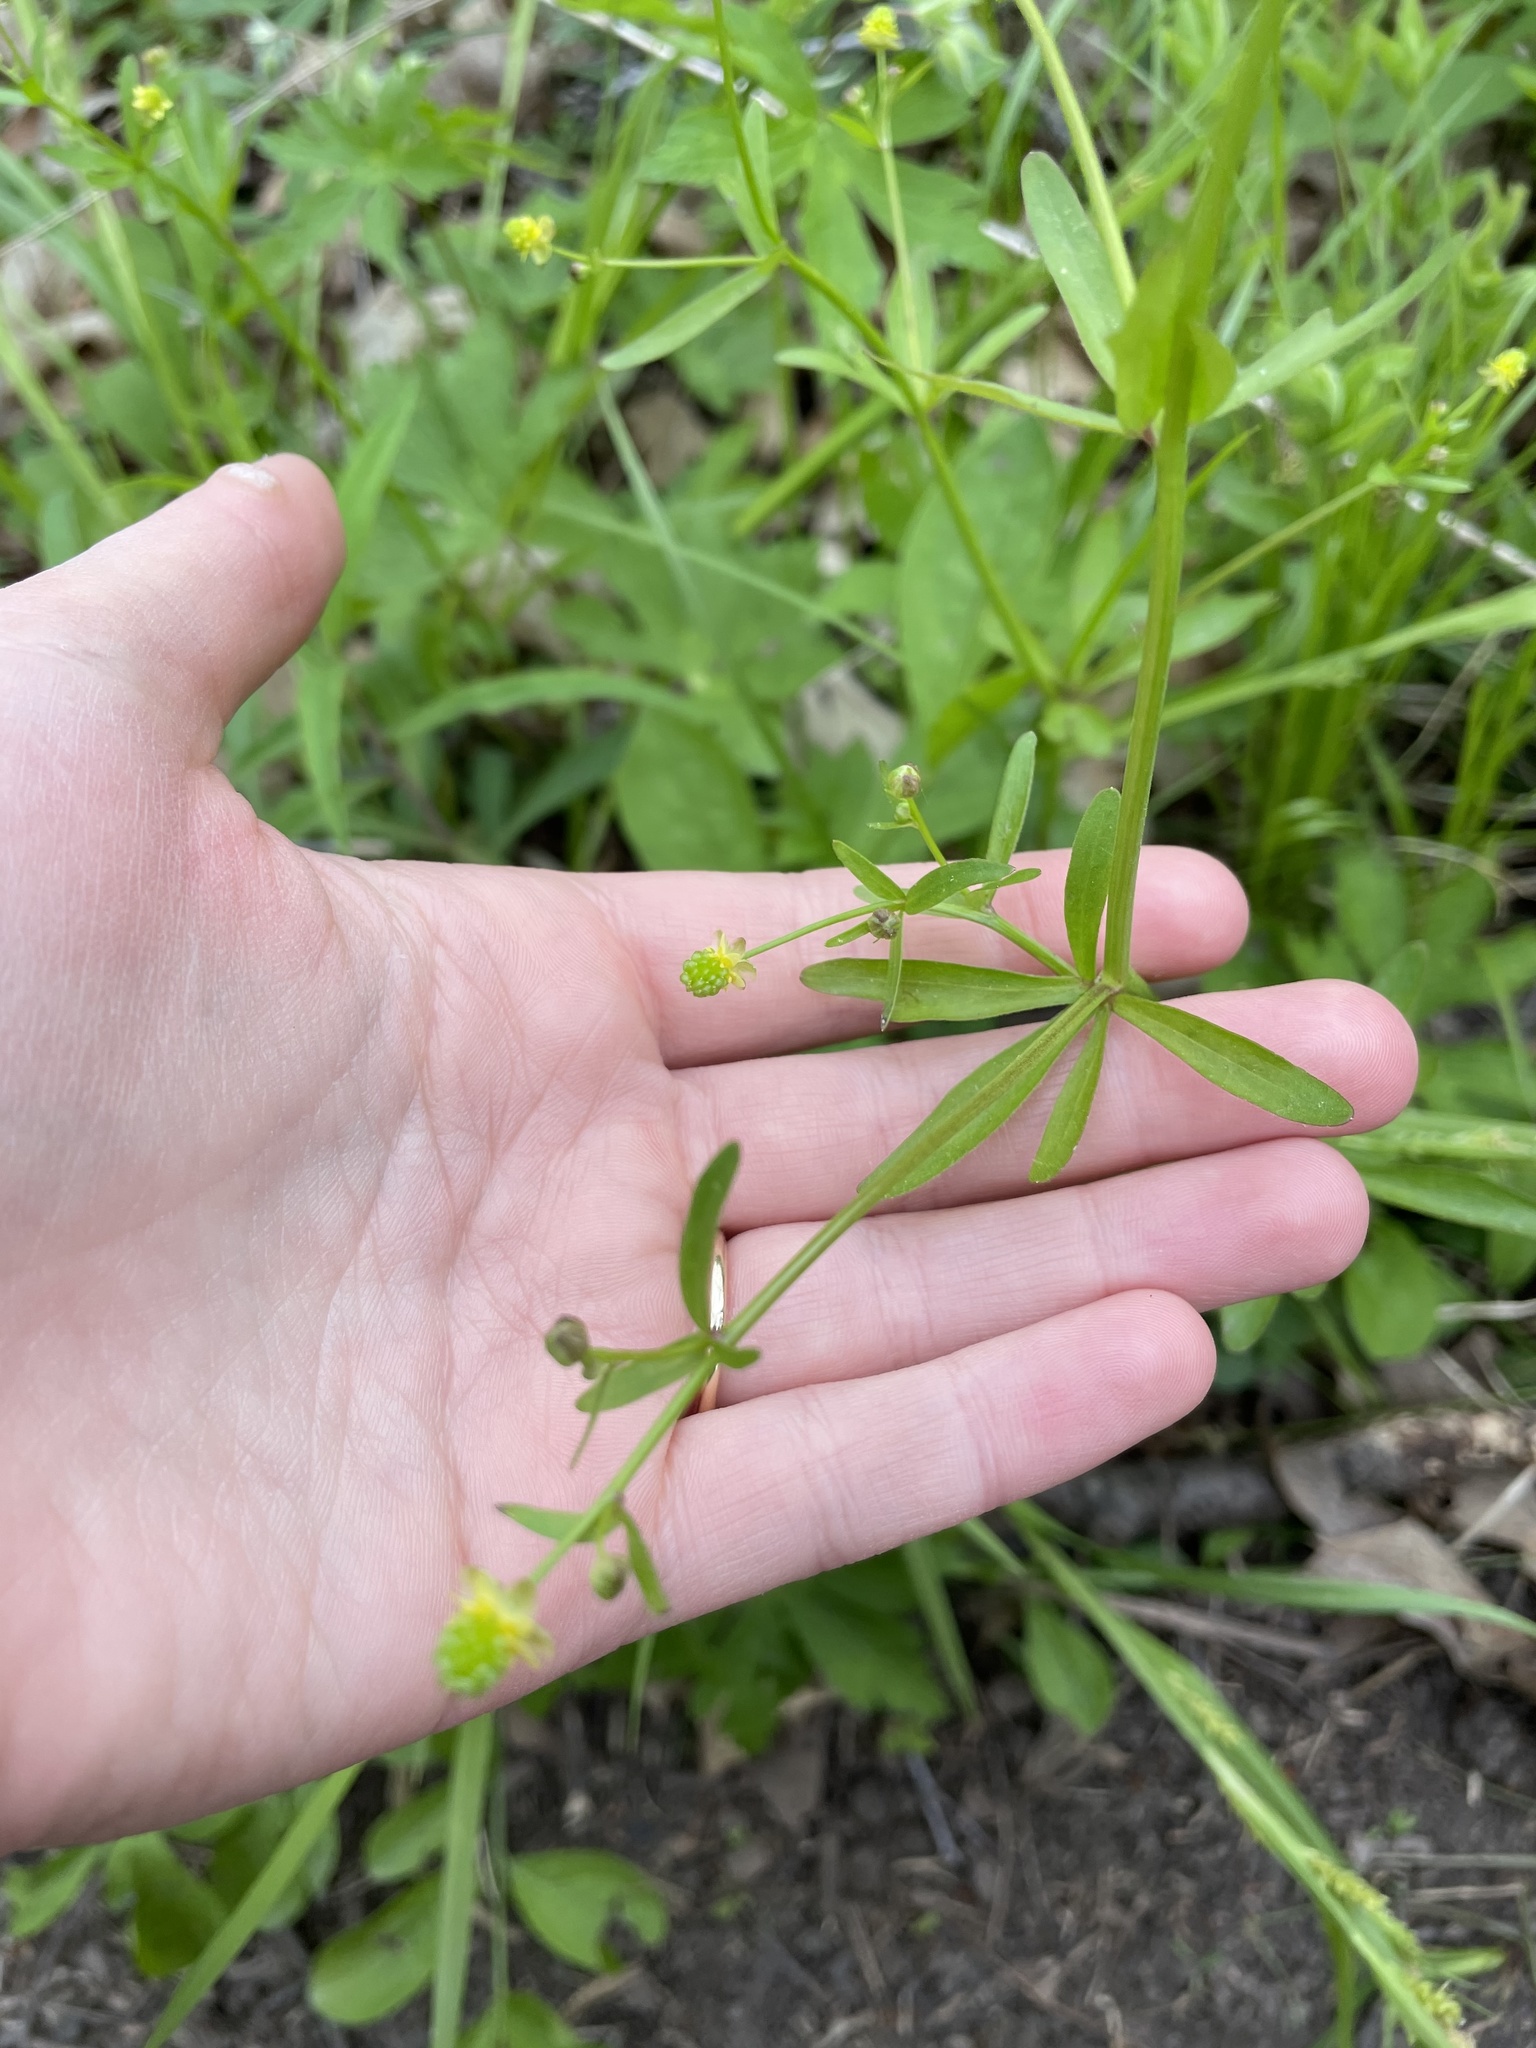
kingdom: Plantae
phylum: Tracheophyta
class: Magnoliopsida
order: Ranunculales
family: Ranunculaceae
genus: Ranunculus
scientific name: Ranunculus abortivus
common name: Early wood buttercup
